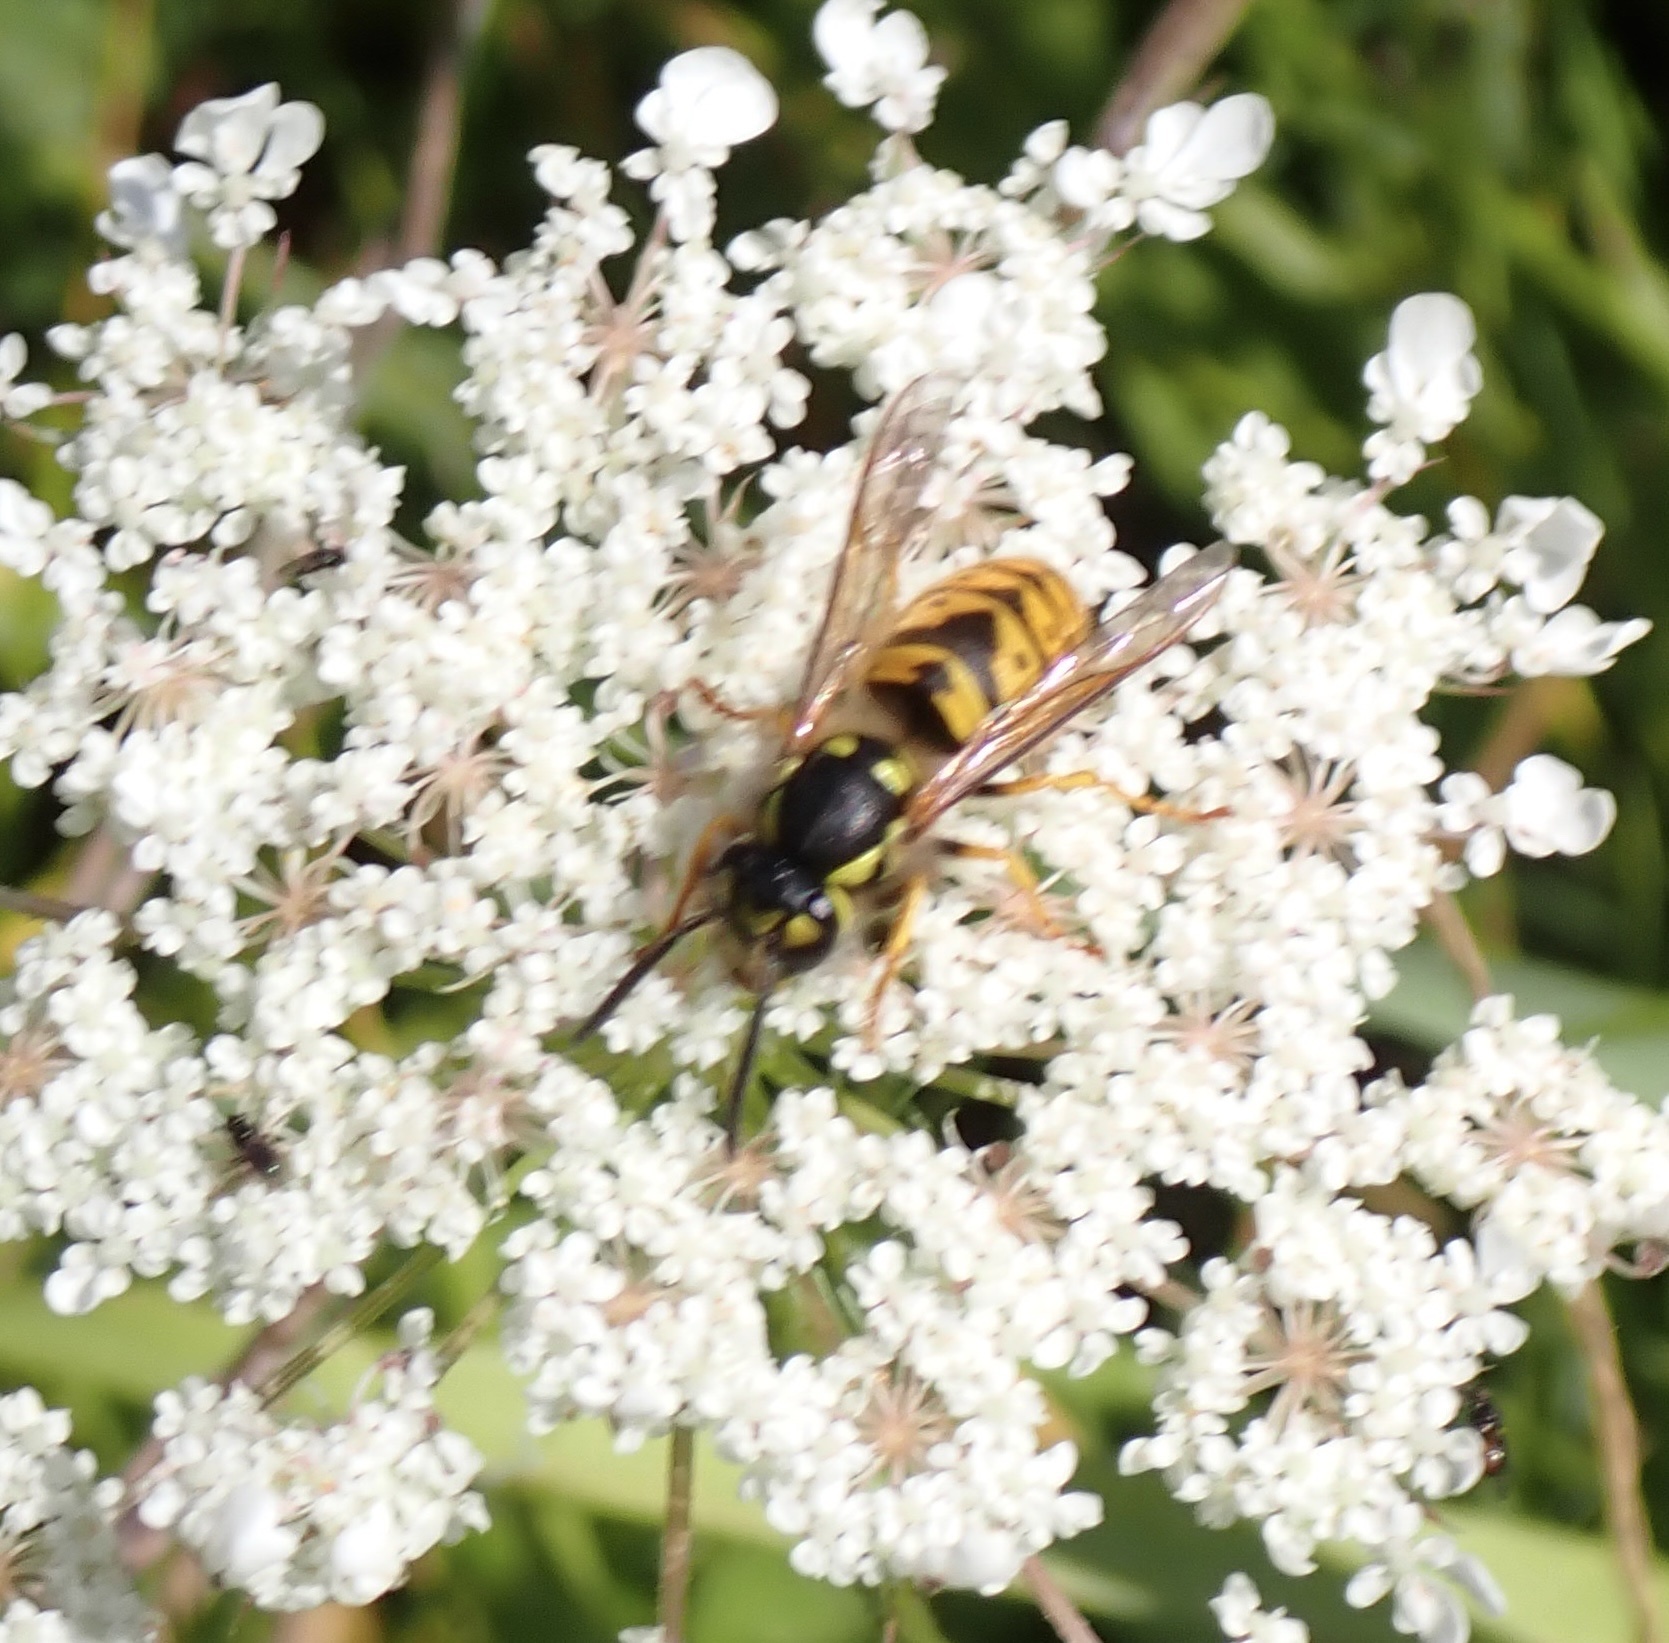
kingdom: Animalia
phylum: Arthropoda
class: Insecta
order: Hymenoptera
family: Vespidae
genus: Vespula
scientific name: Vespula germanica
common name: German wasp
